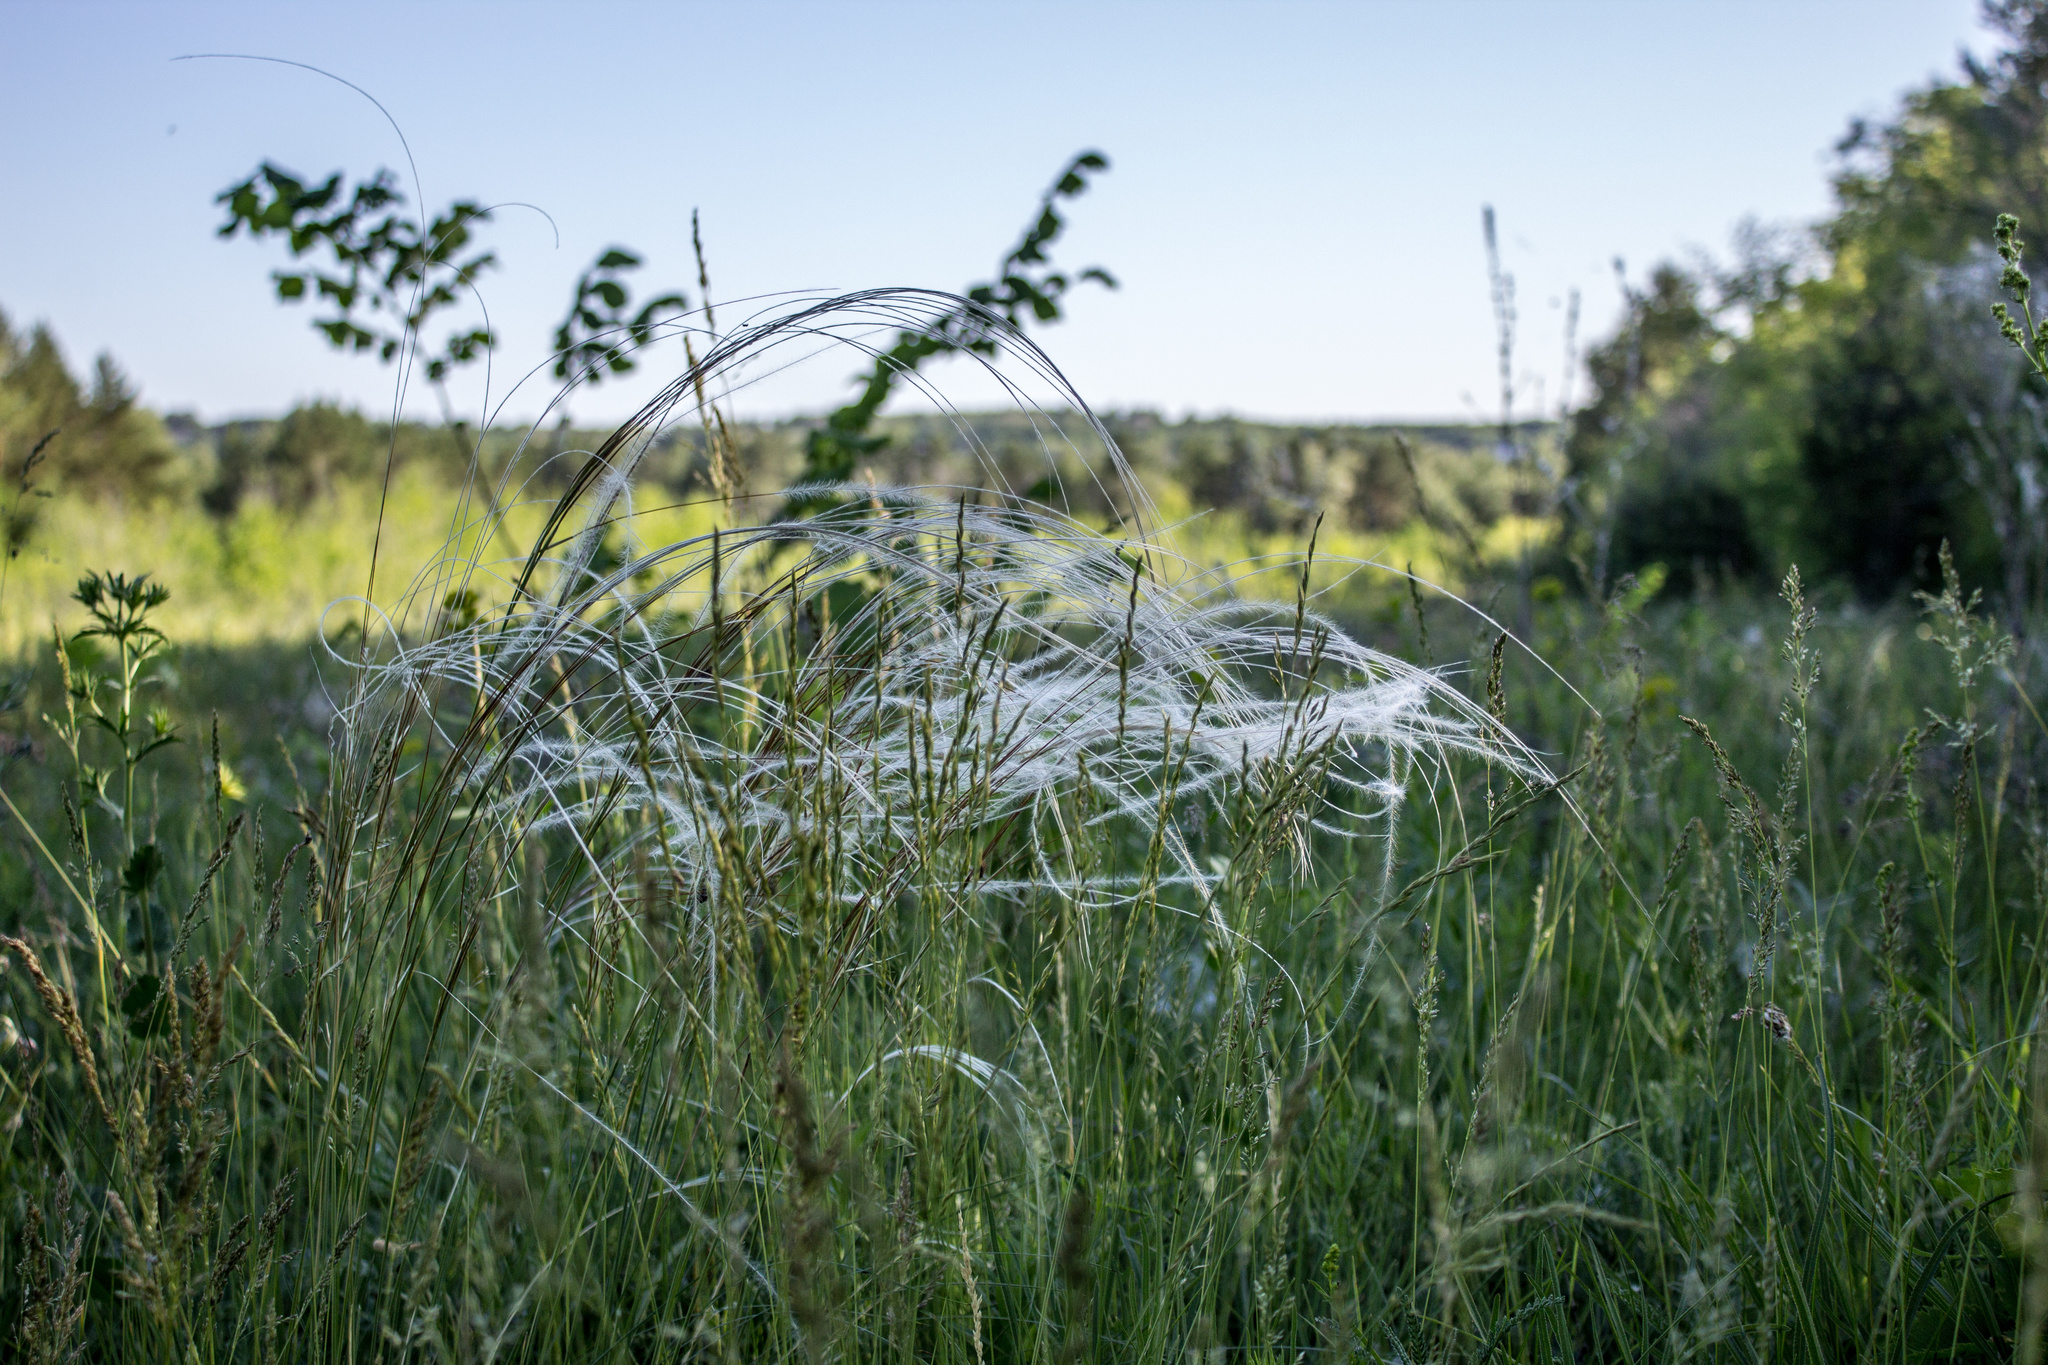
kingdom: Plantae
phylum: Tracheophyta
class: Liliopsida
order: Poales
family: Poaceae
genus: Stipa
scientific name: Stipa pennata
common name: European feather grass
